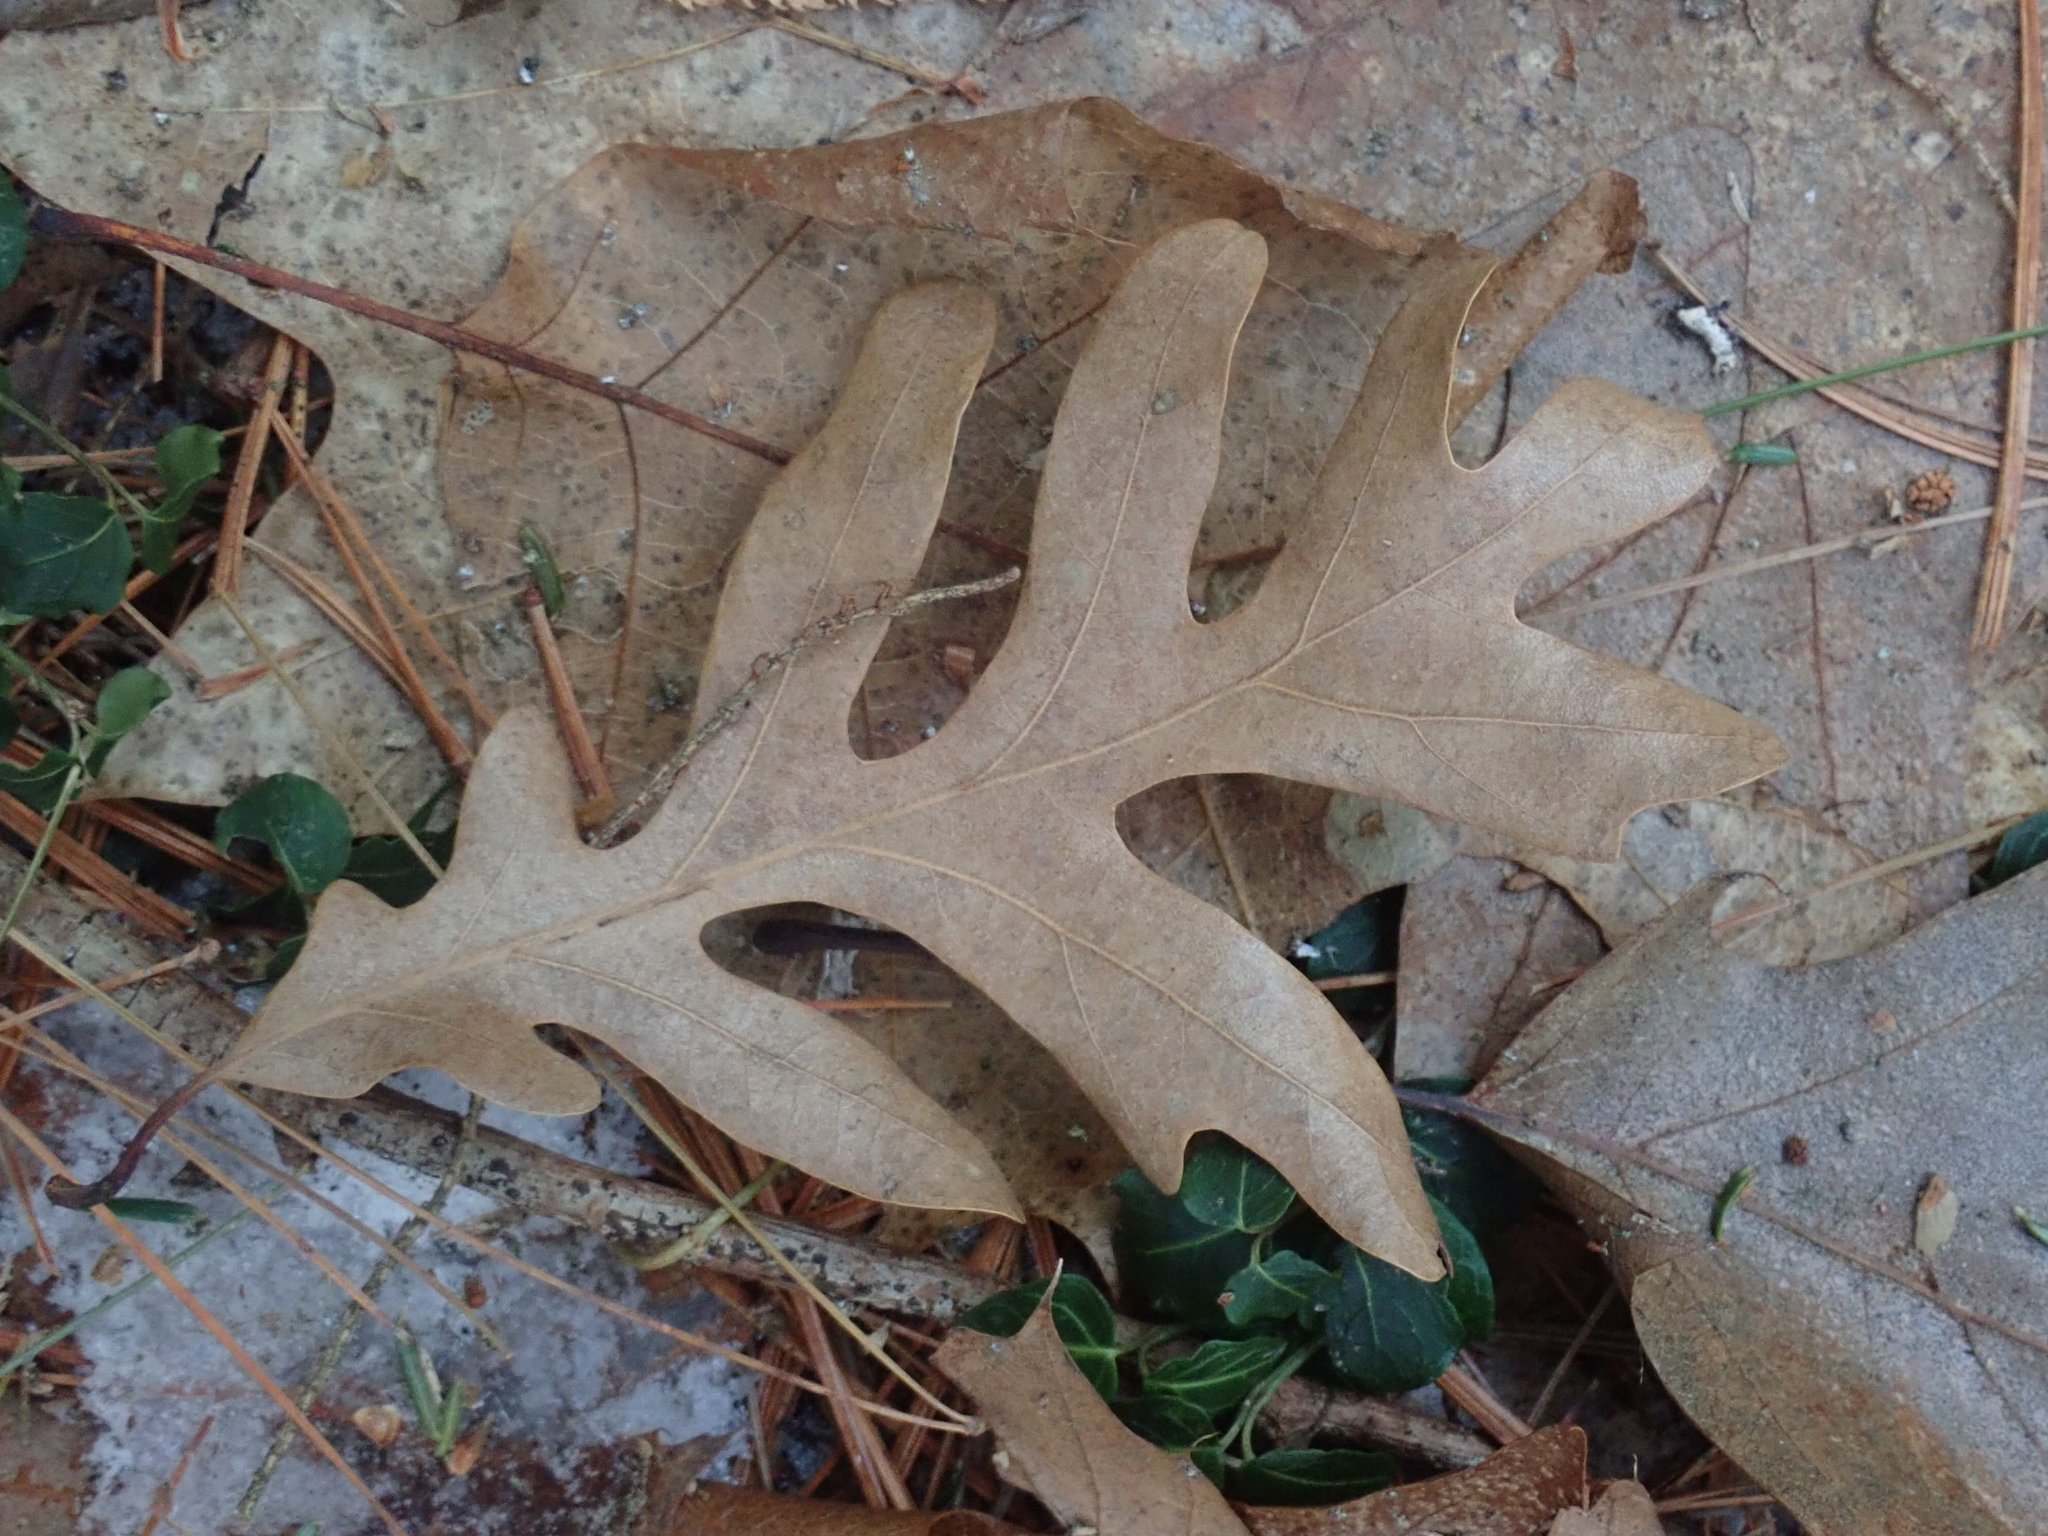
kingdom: Plantae
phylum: Tracheophyta
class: Magnoliopsida
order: Fagales
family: Fagaceae
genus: Quercus
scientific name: Quercus alba
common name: White oak
